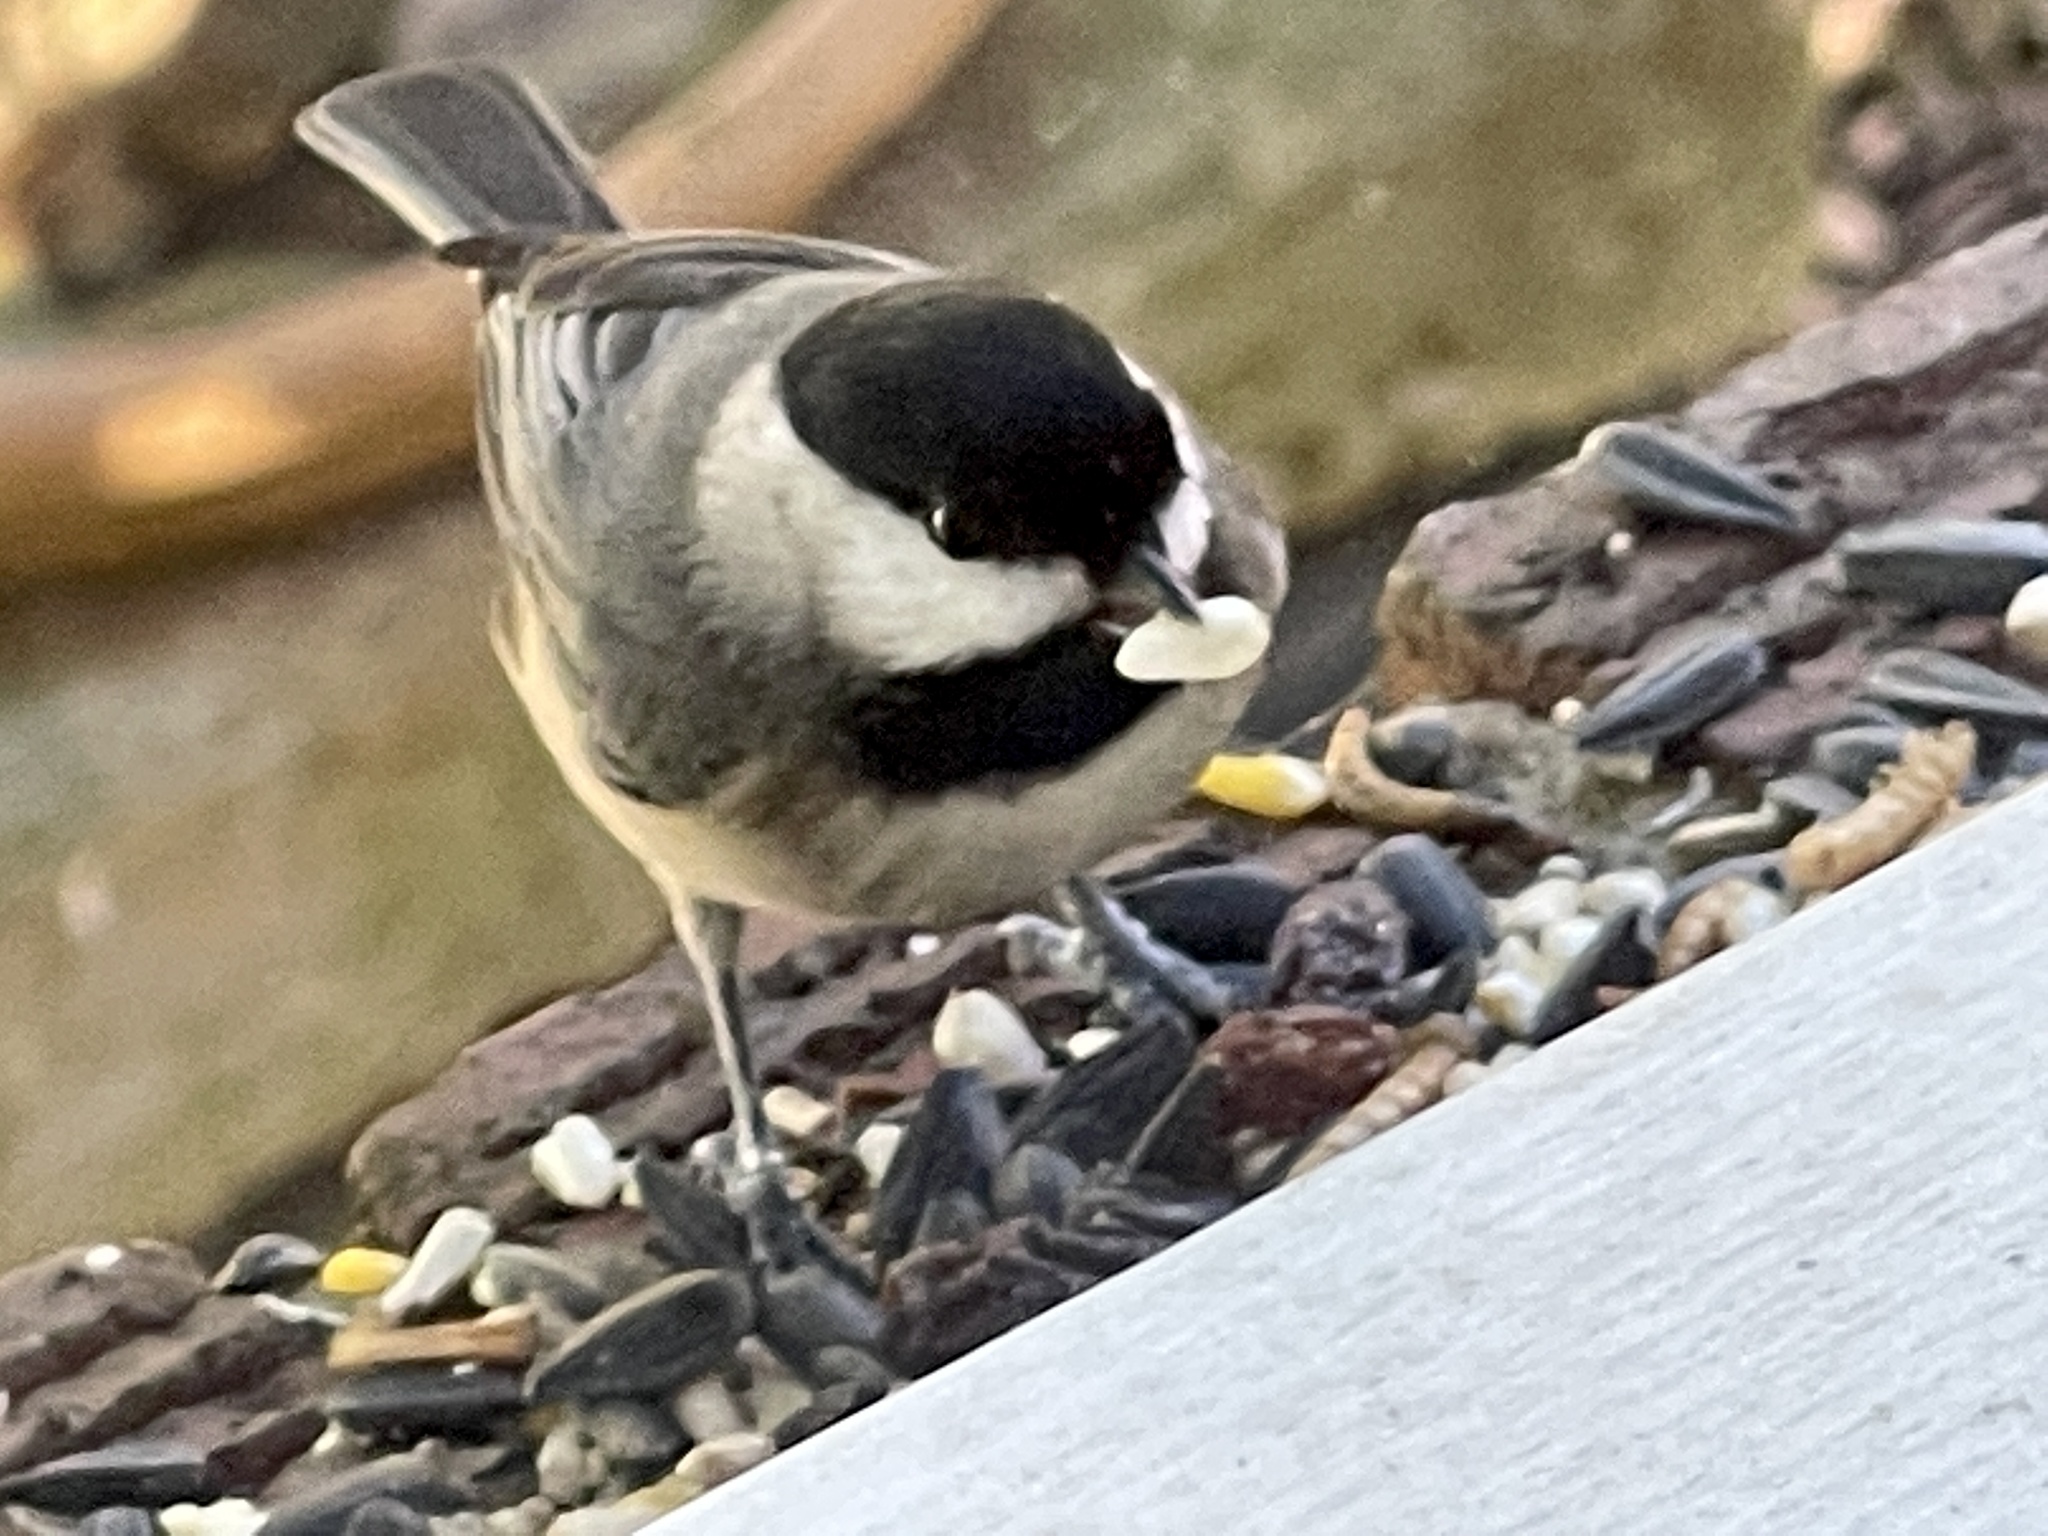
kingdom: Animalia
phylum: Chordata
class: Aves
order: Passeriformes
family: Paridae
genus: Poecile
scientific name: Poecile carolinensis
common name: Carolina chickadee
